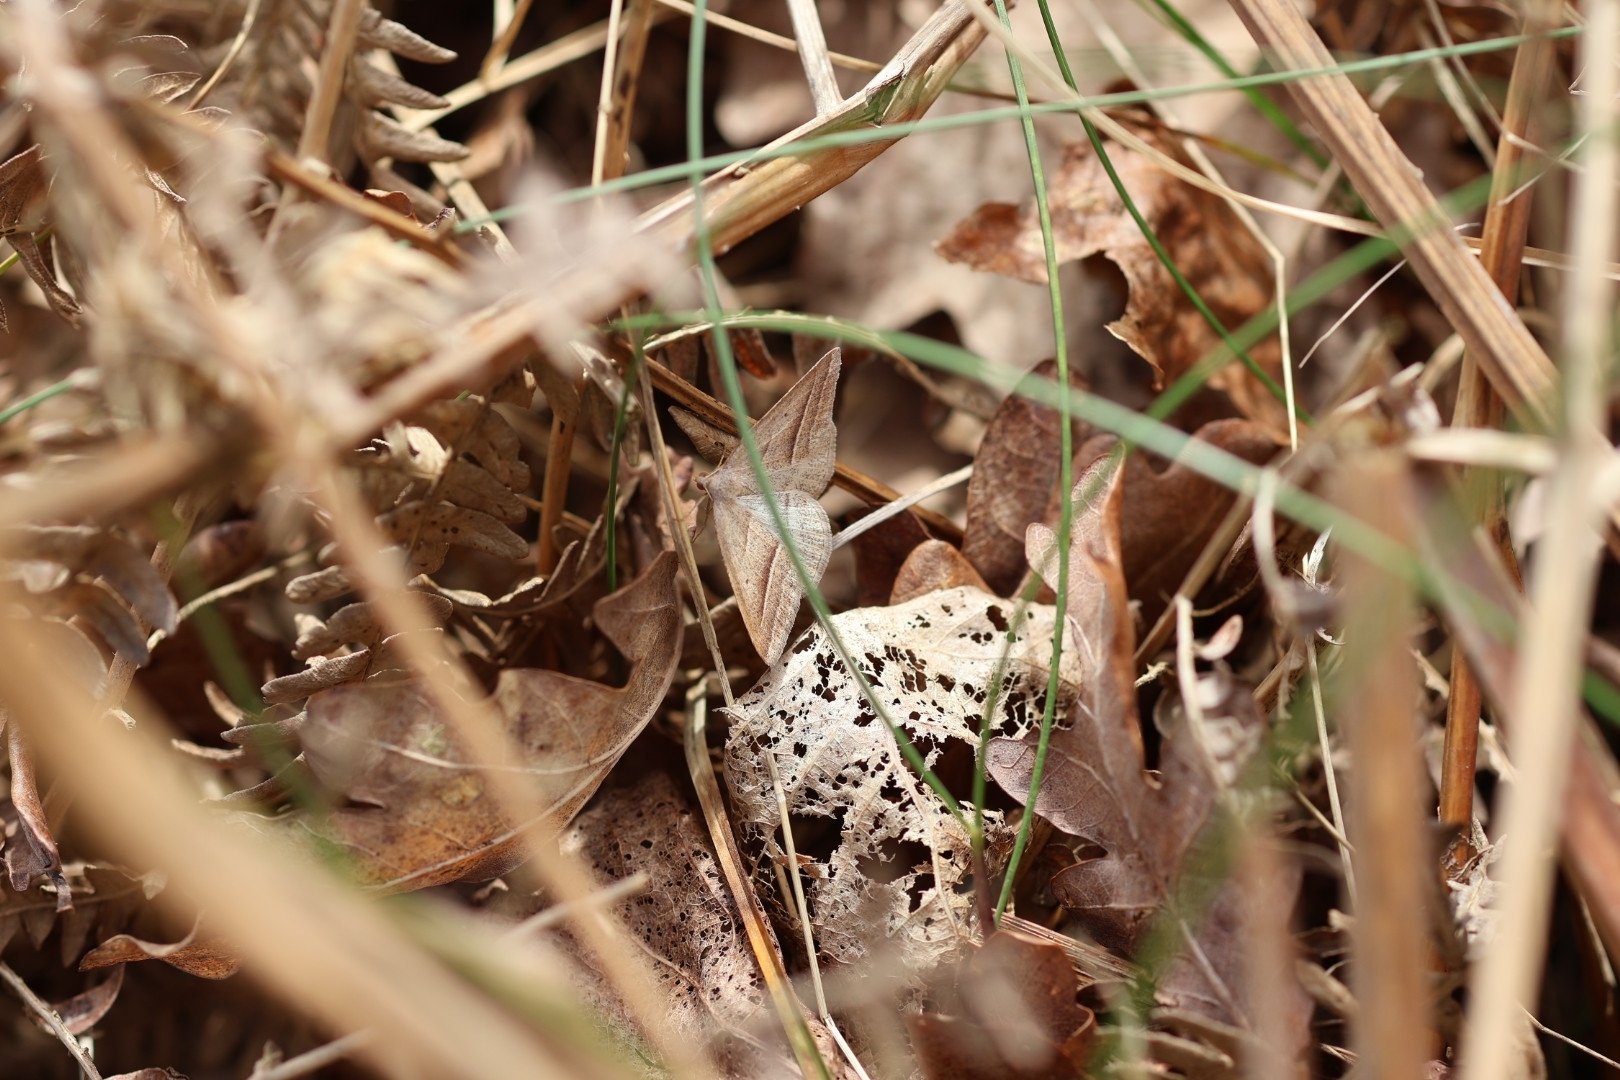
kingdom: Animalia
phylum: Arthropoda
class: Insecta
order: Lepidoptera
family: Pterophoridae
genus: Pterophorus
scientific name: Pterophorus Petrophora chlorosata
